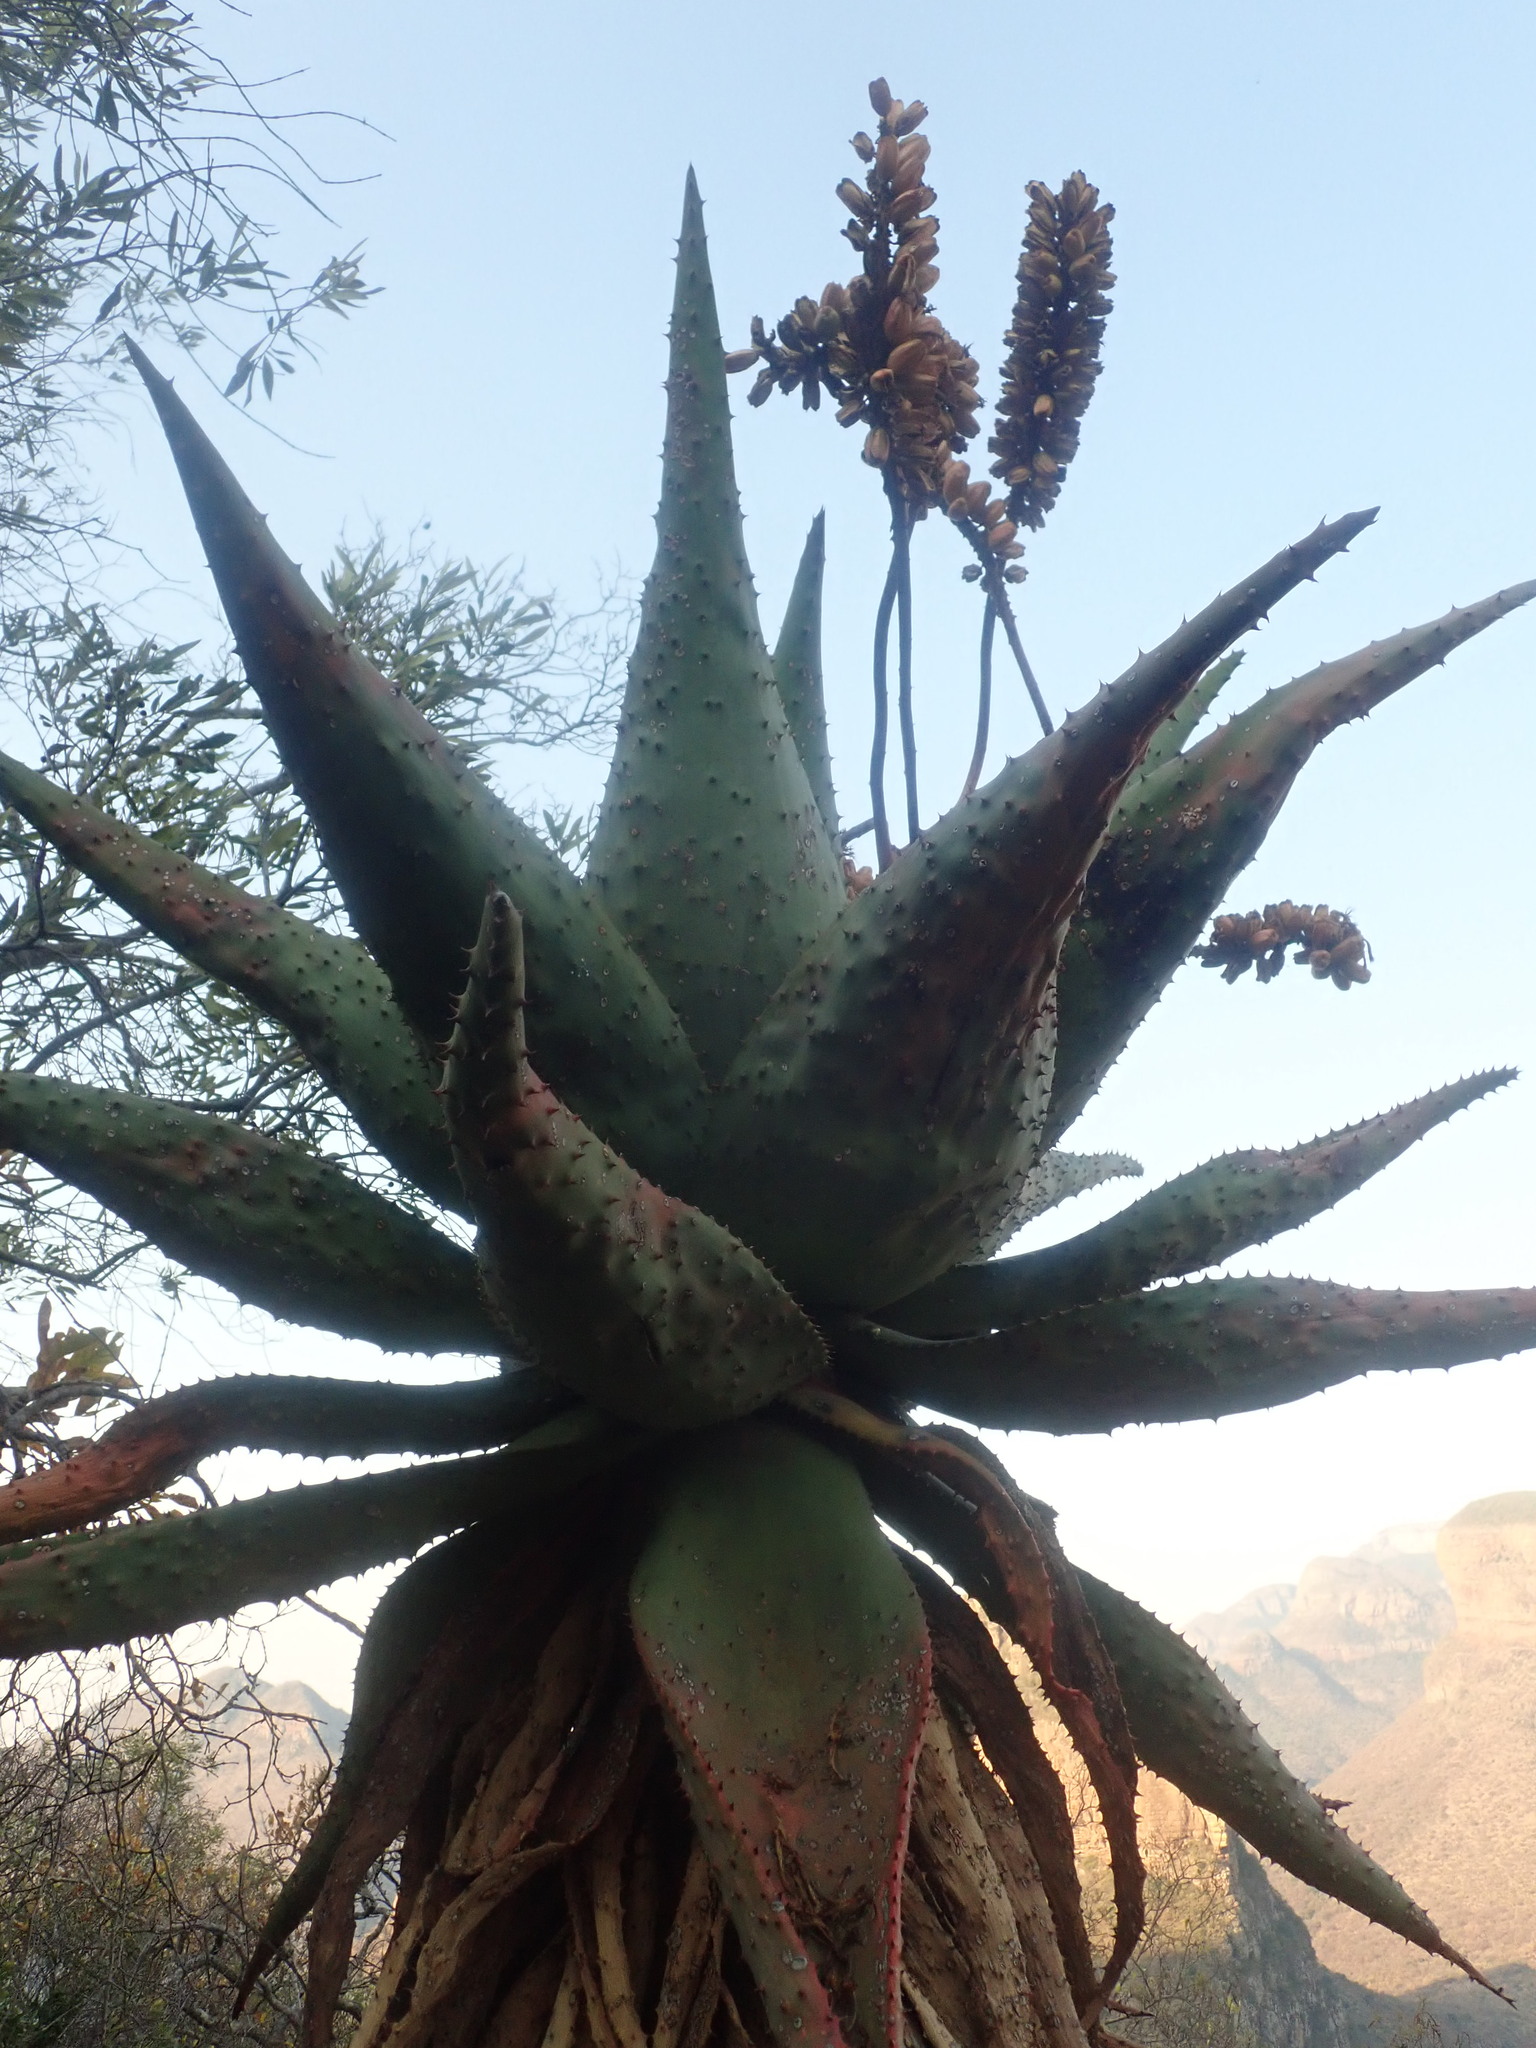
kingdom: Plantae
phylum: Tracheophyta
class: Liliopsida
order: Asparagales
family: Asphodelaceae
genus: Aloe
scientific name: Aloe marlothii
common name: Flat-flowered aloe
